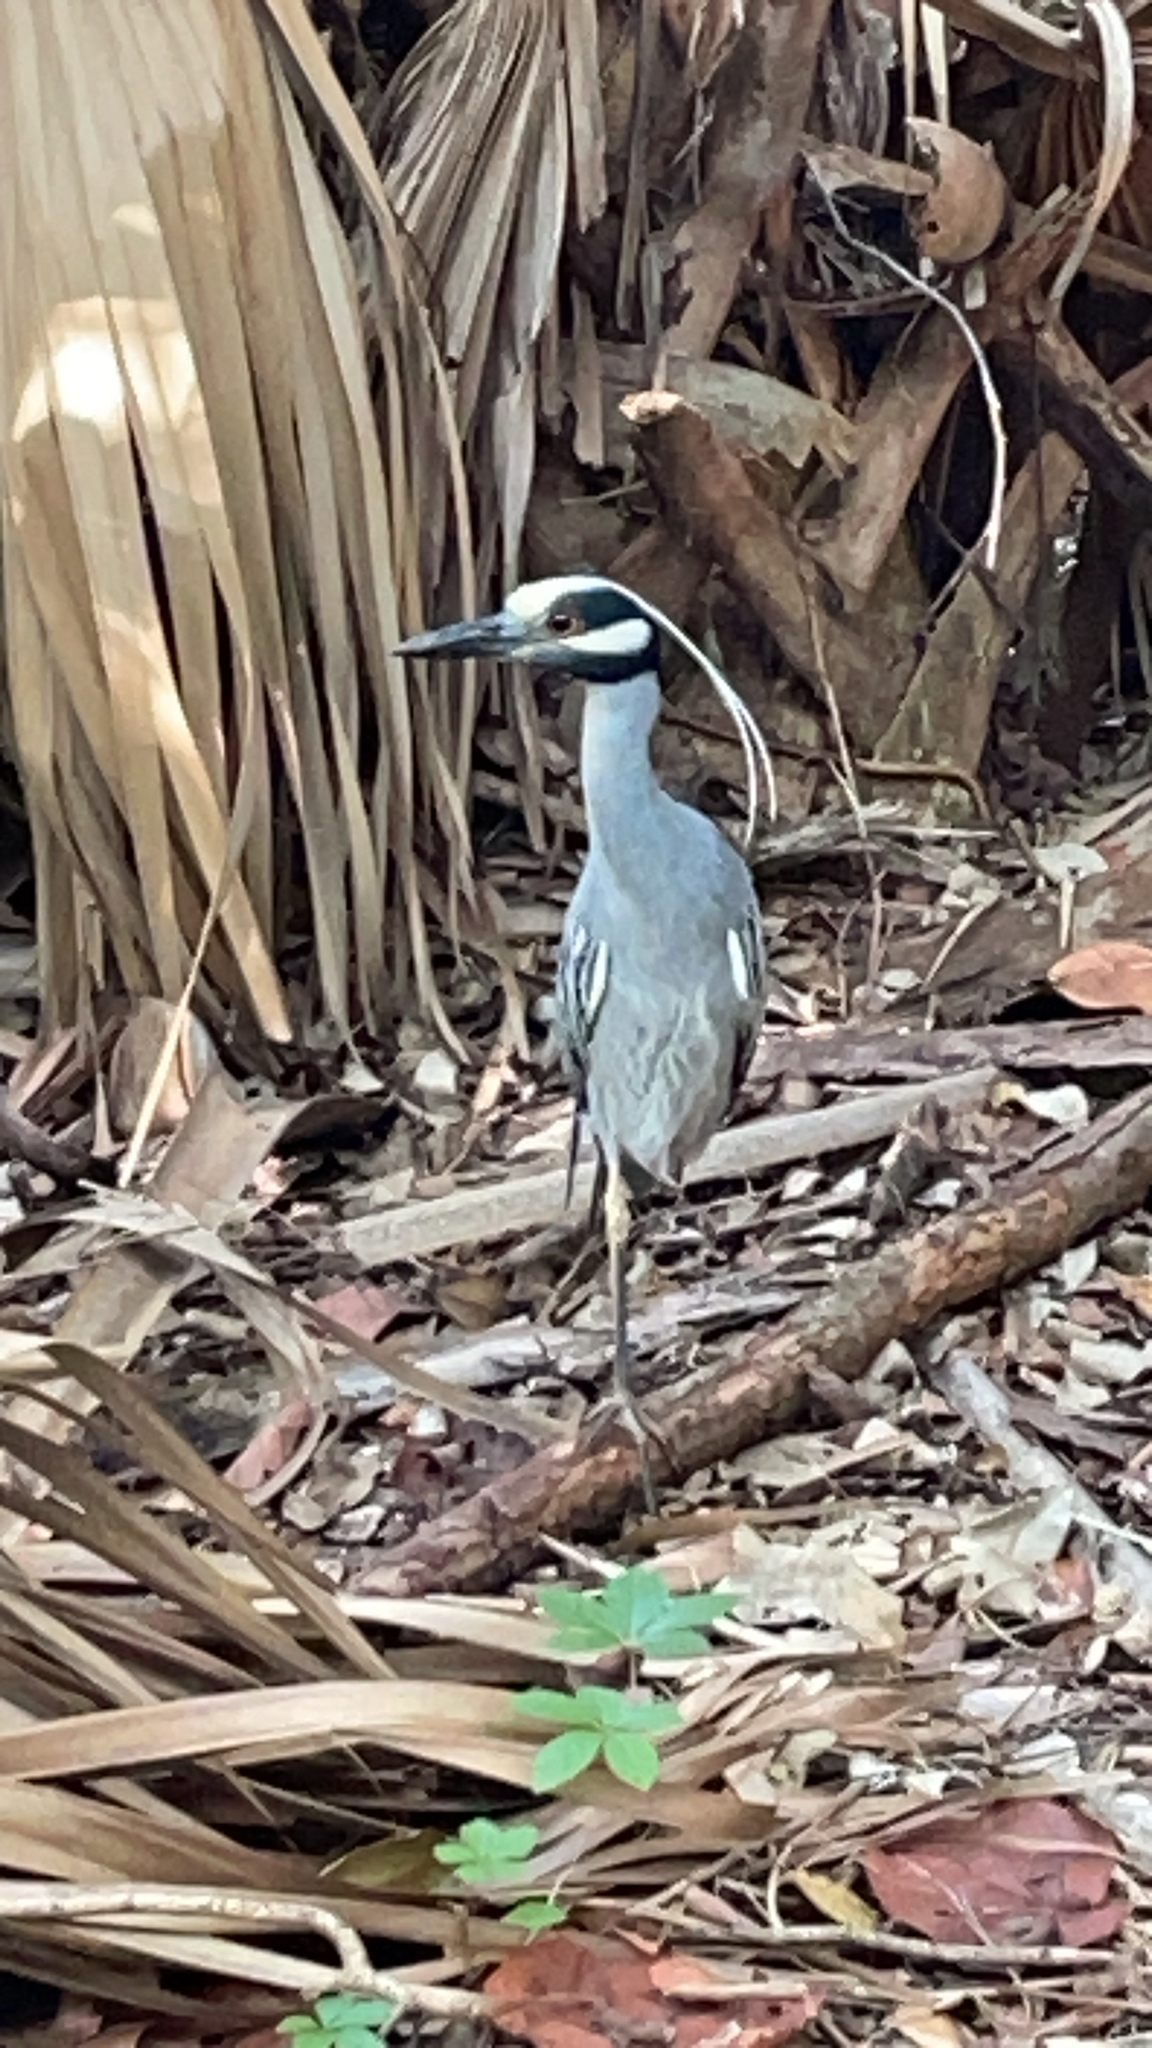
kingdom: Animalia
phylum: Chordata
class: Aves
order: Pelecaniformes
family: Ardeidae
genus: Nyctanassa
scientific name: Nyctanassa violacea
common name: Yellow-crowned night heron
